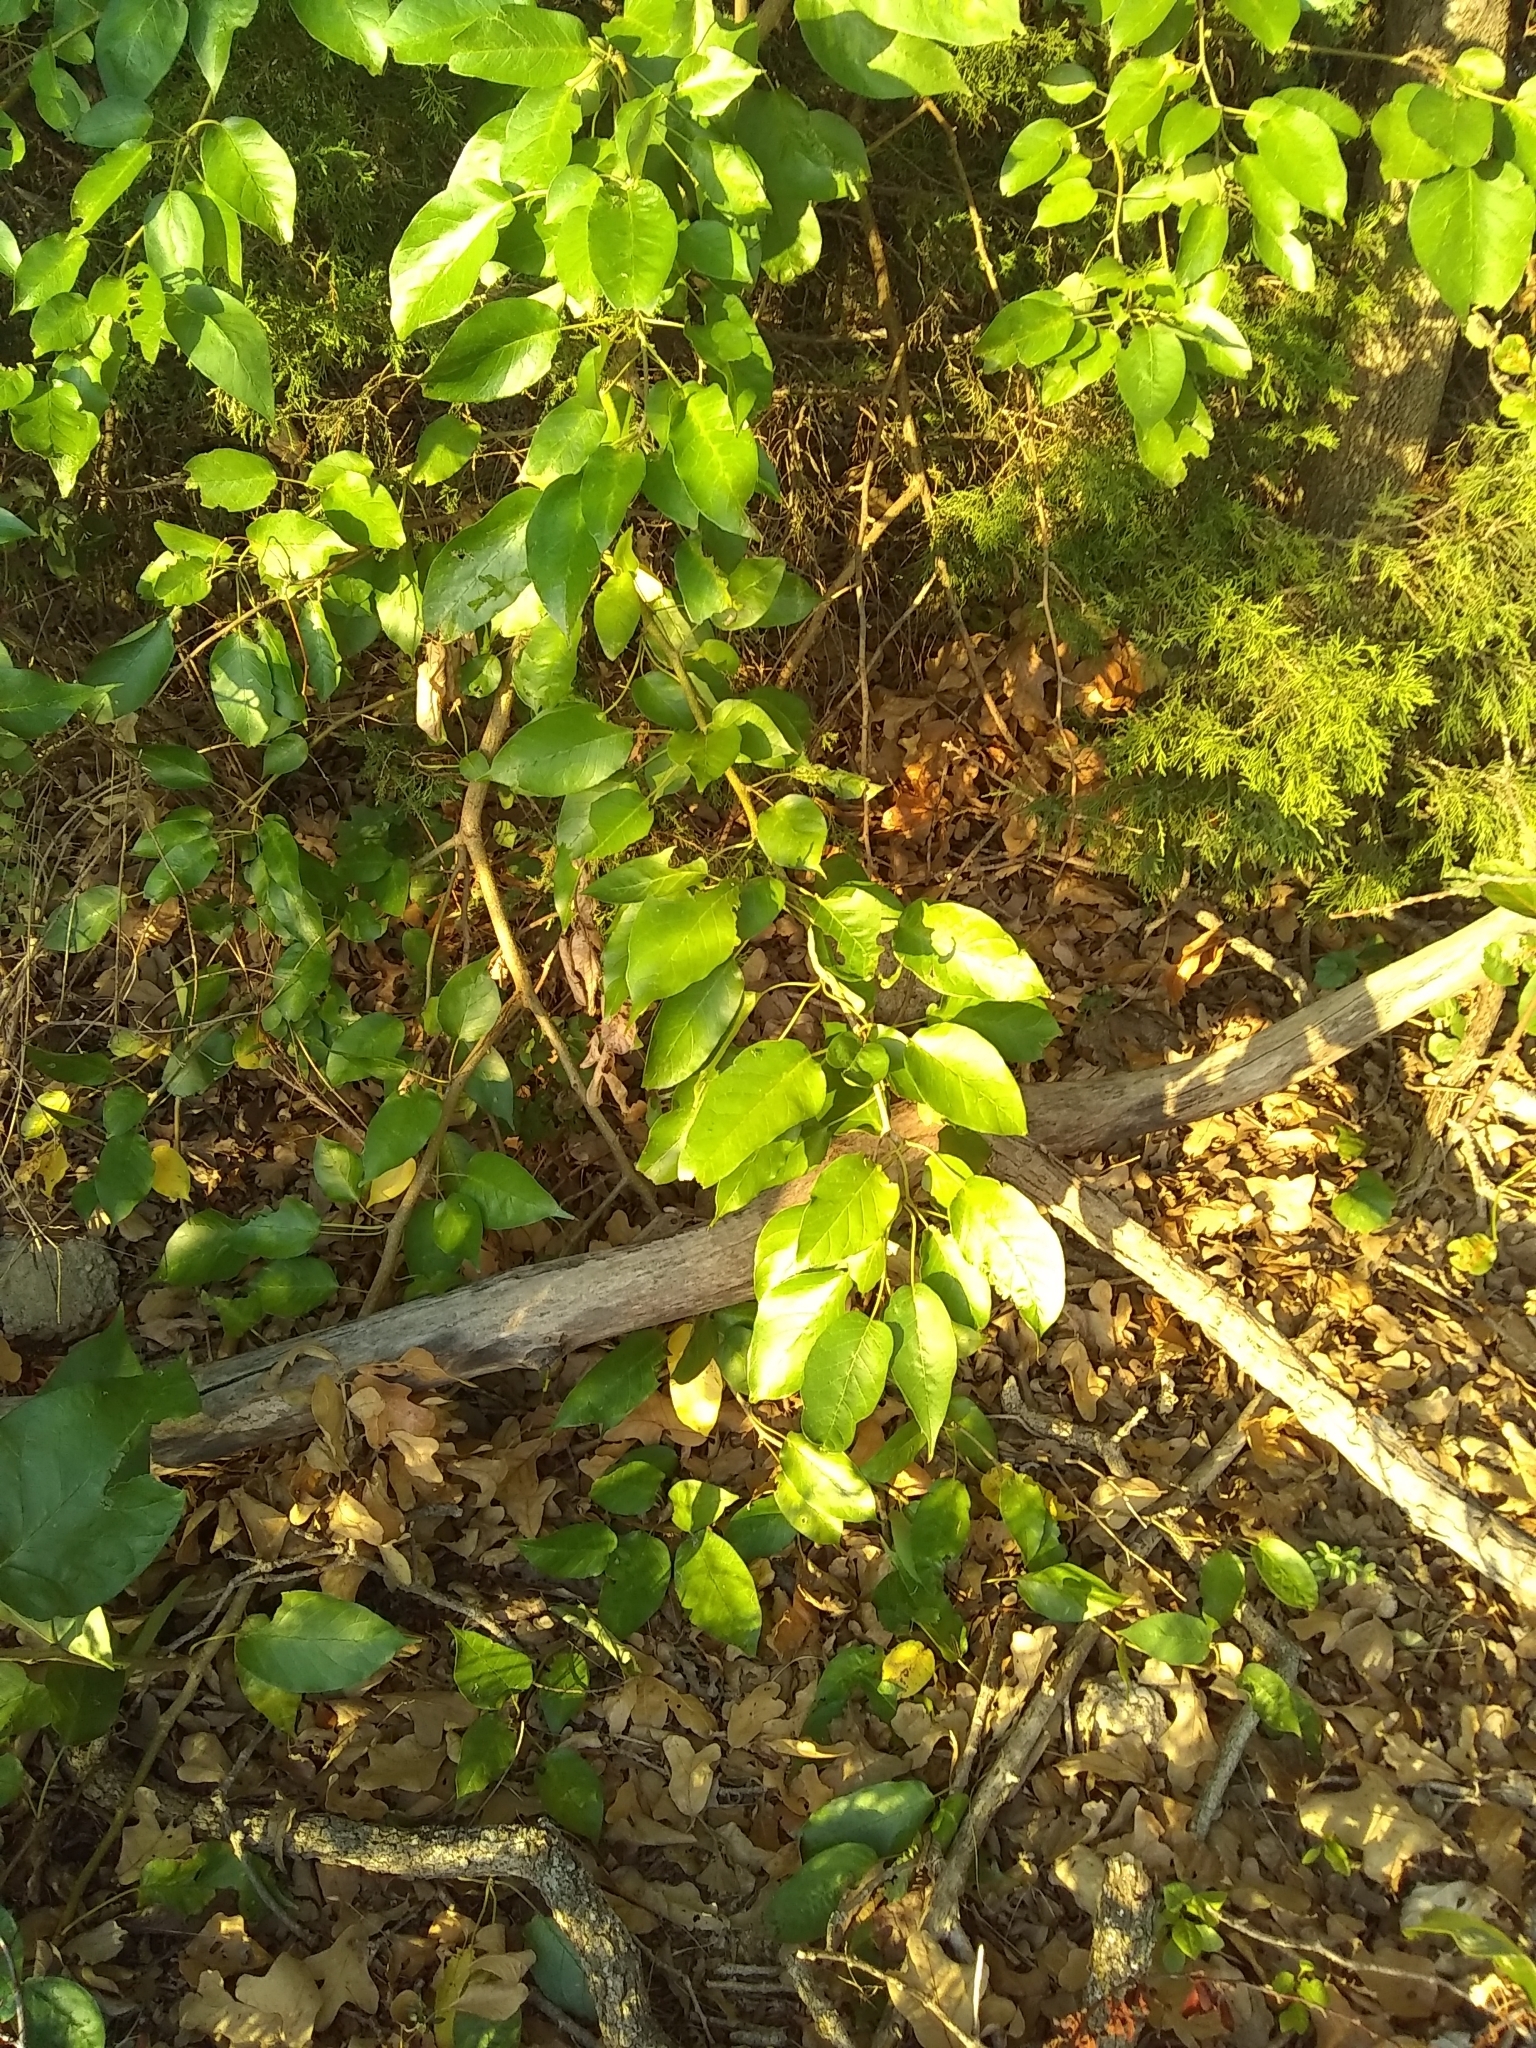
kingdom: Plantae
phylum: Tracheophyta
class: Magnoliopsida
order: Rosales
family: Moraceae
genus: Maclura
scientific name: Maclura pomifera
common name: Osage-orange
